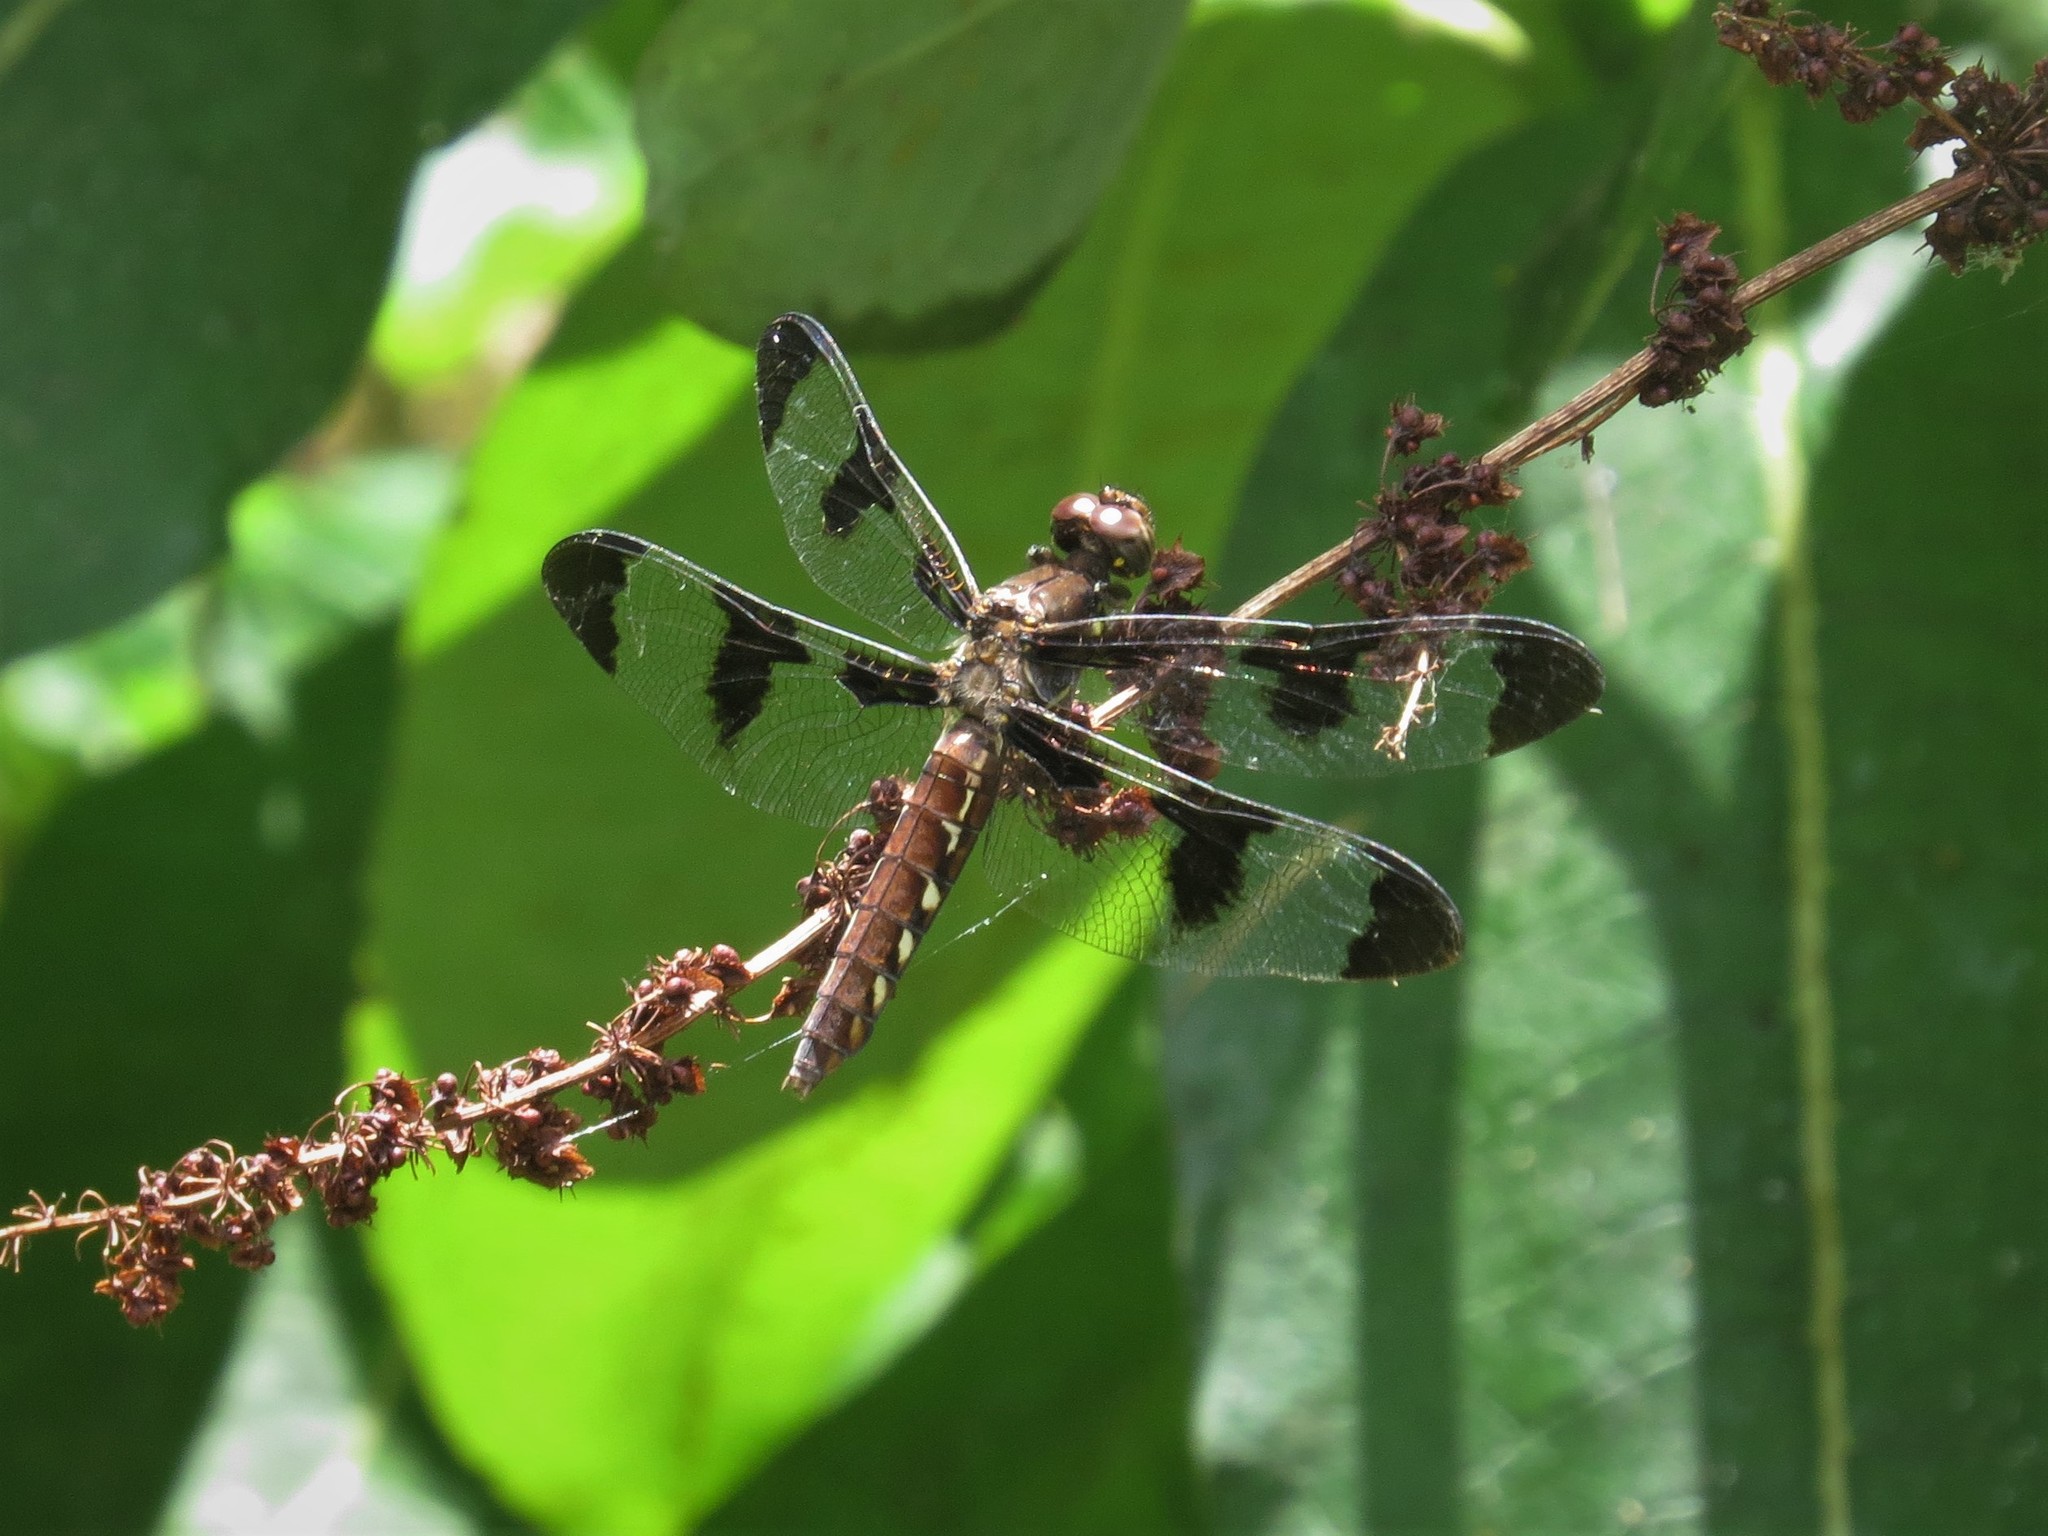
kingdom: Animalia
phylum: Arthropoda
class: Insecta
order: Odonata
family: Libellulidae
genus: Plathemis
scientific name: Plathemis lydia
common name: Common whitetail
